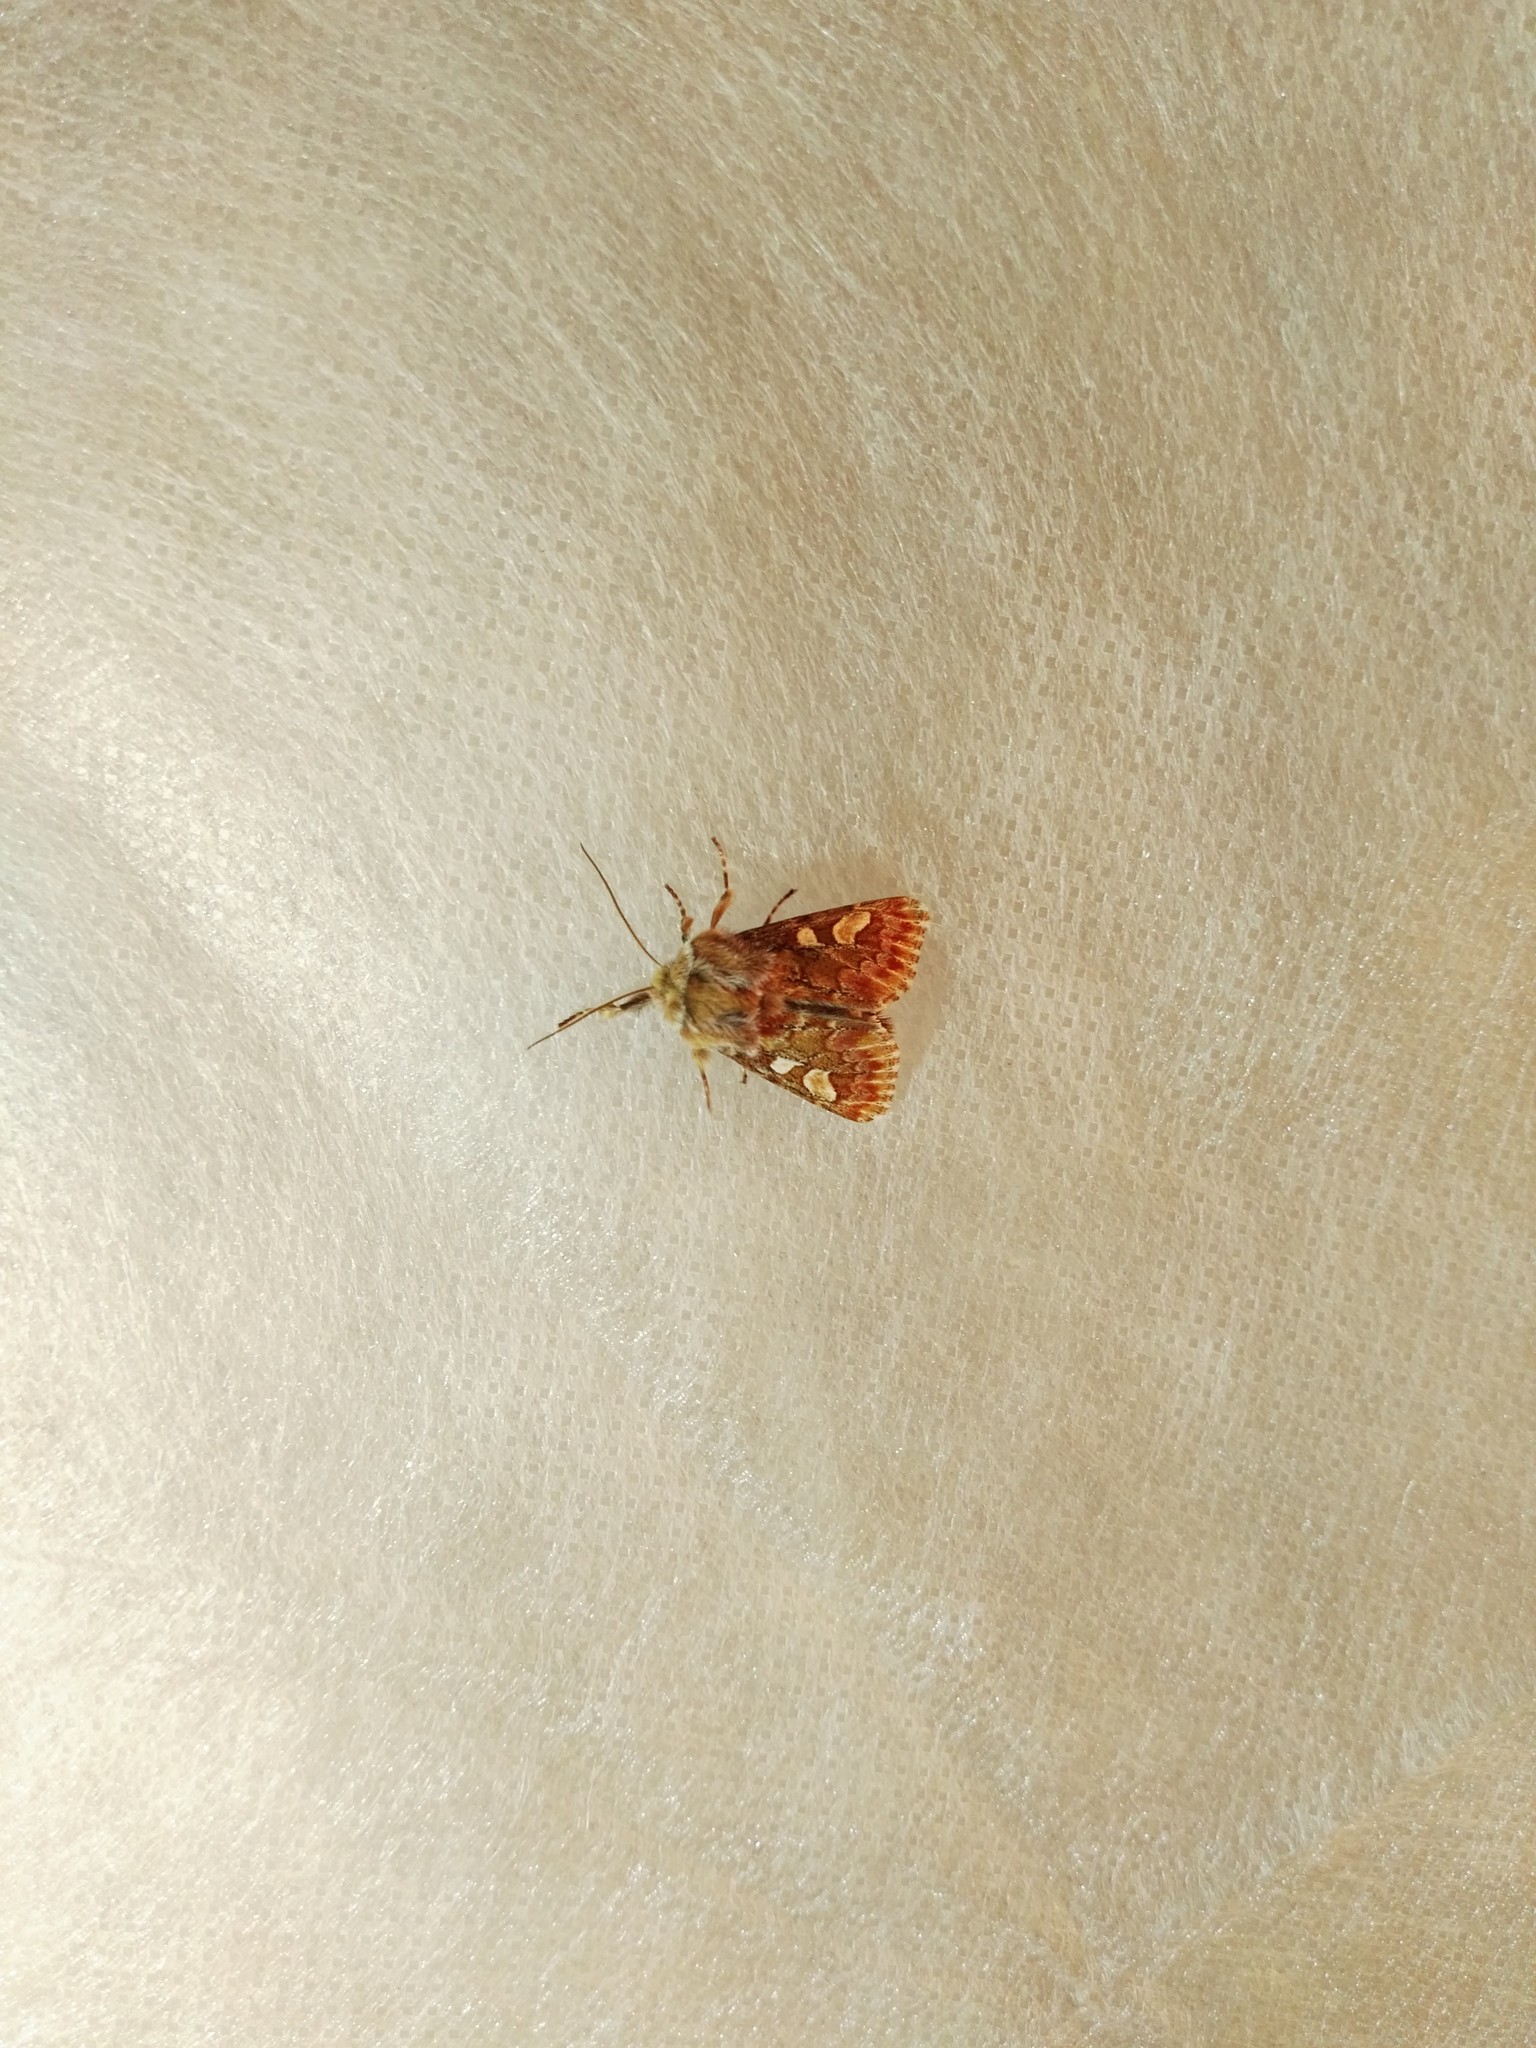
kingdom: Animalia
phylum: Arthropoda
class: Insecta
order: Lepidoptera
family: Noctuidae
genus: Panolis
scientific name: Panolis flammea
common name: Pine beauty
